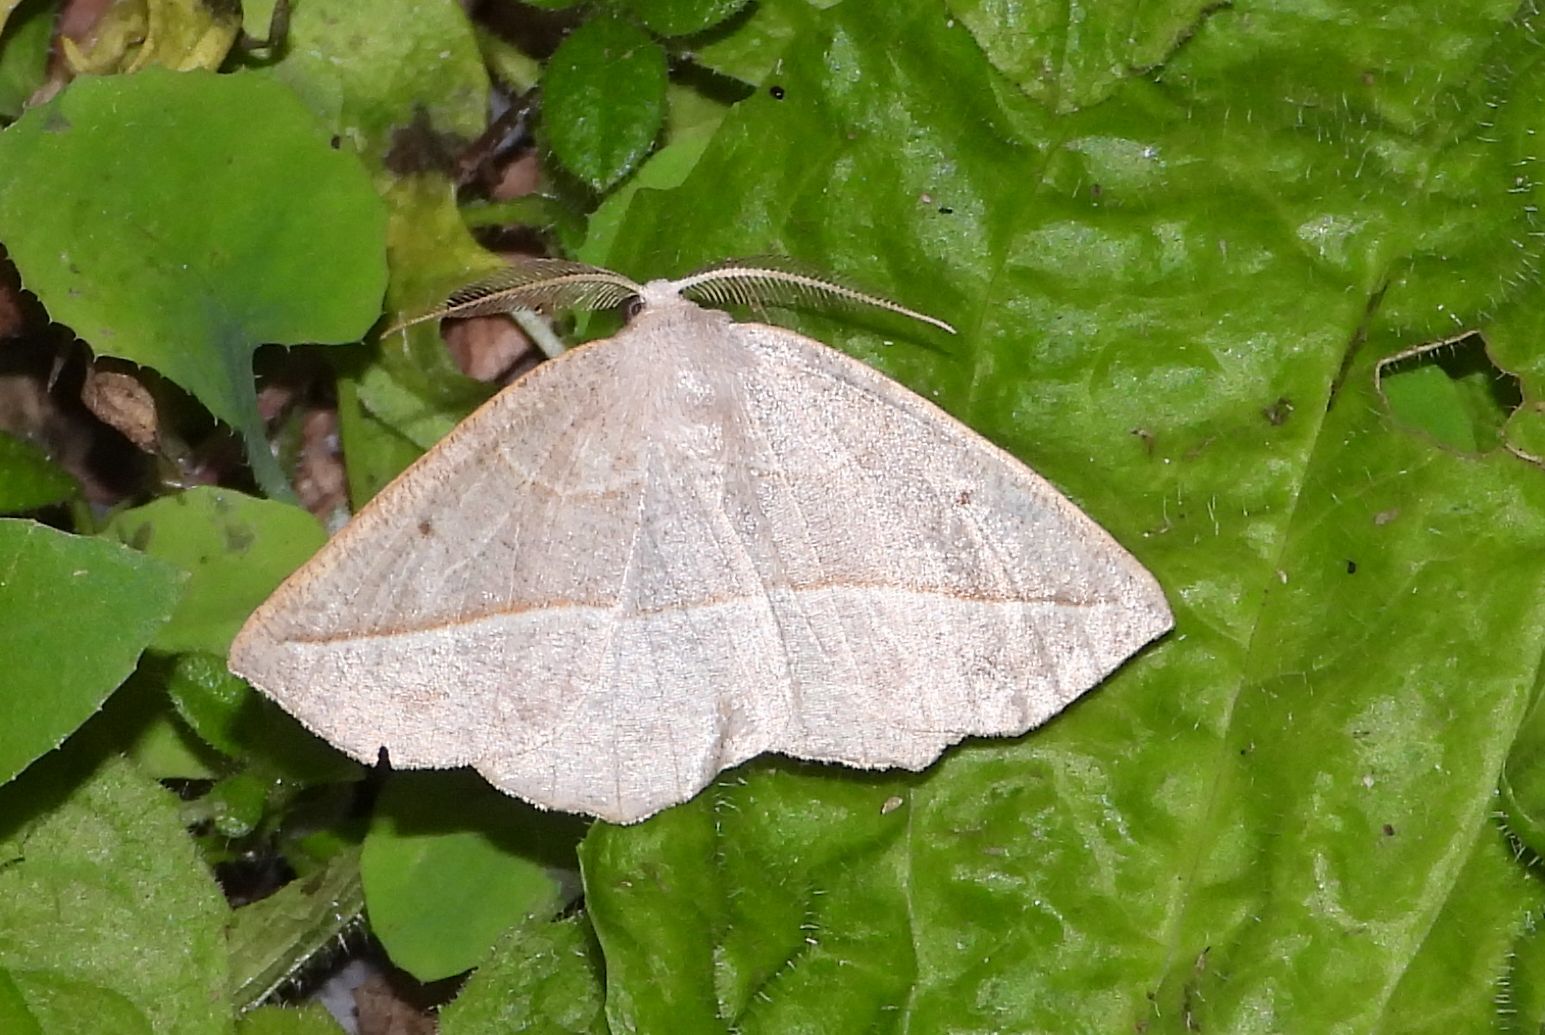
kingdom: Animalia
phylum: Arthropoda
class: Insecta
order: Lepidoptera
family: Geometridae
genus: Eusarca
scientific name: Eusarca confusaria
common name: Confused eusarca
